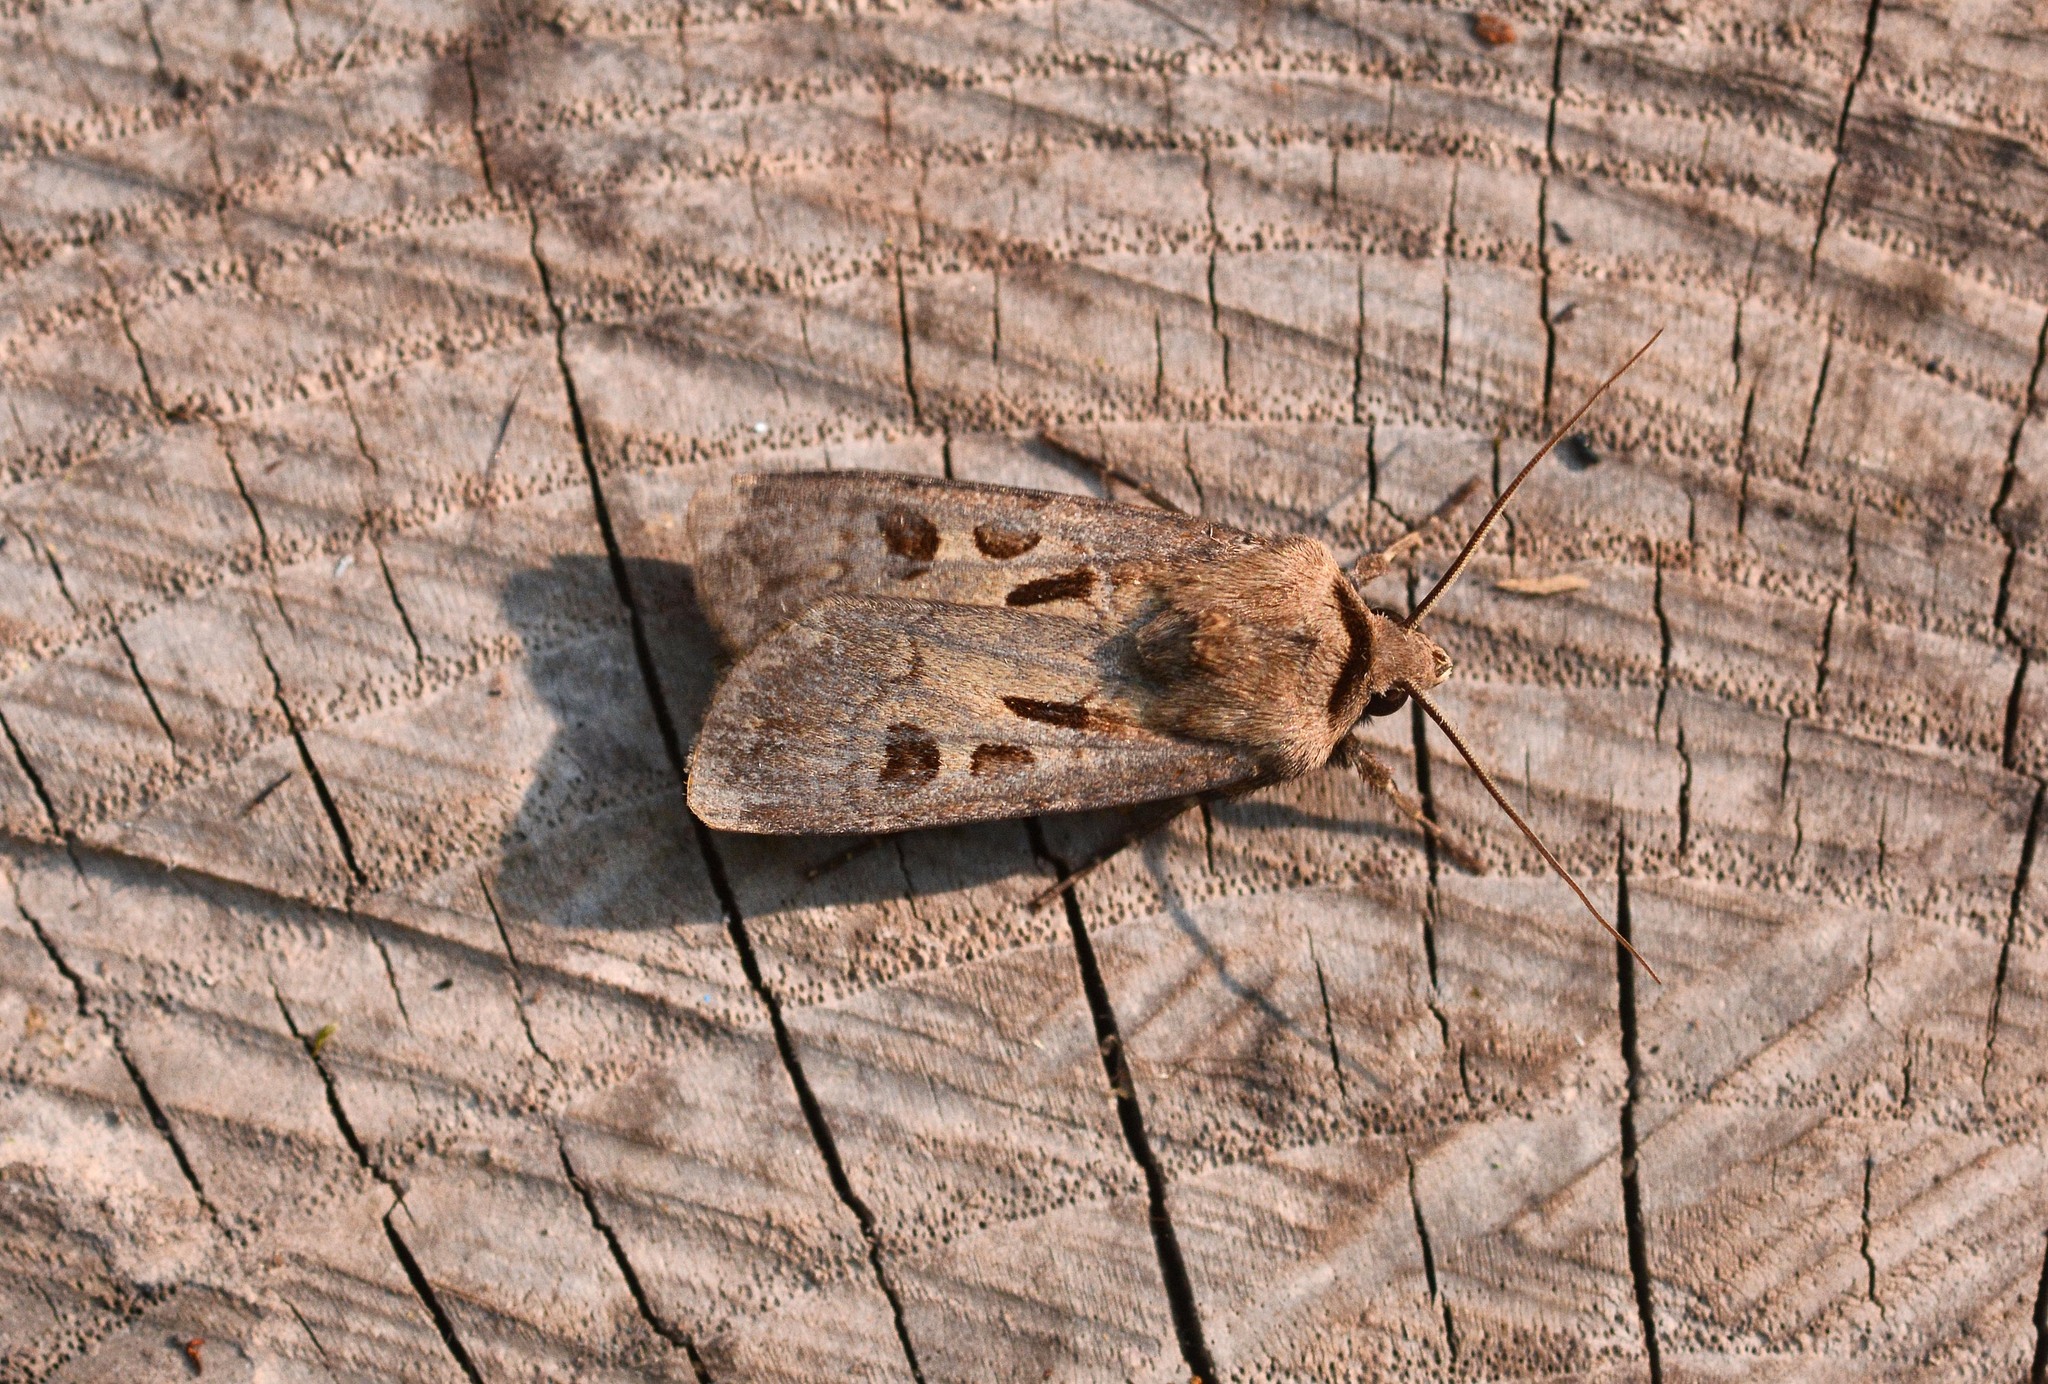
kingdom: Animalia
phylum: Arthropoda
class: Insecta
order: Lepidoptera
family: Noctuidae
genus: Agrotis
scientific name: Agrotis exclamationis
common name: Heart and dart
